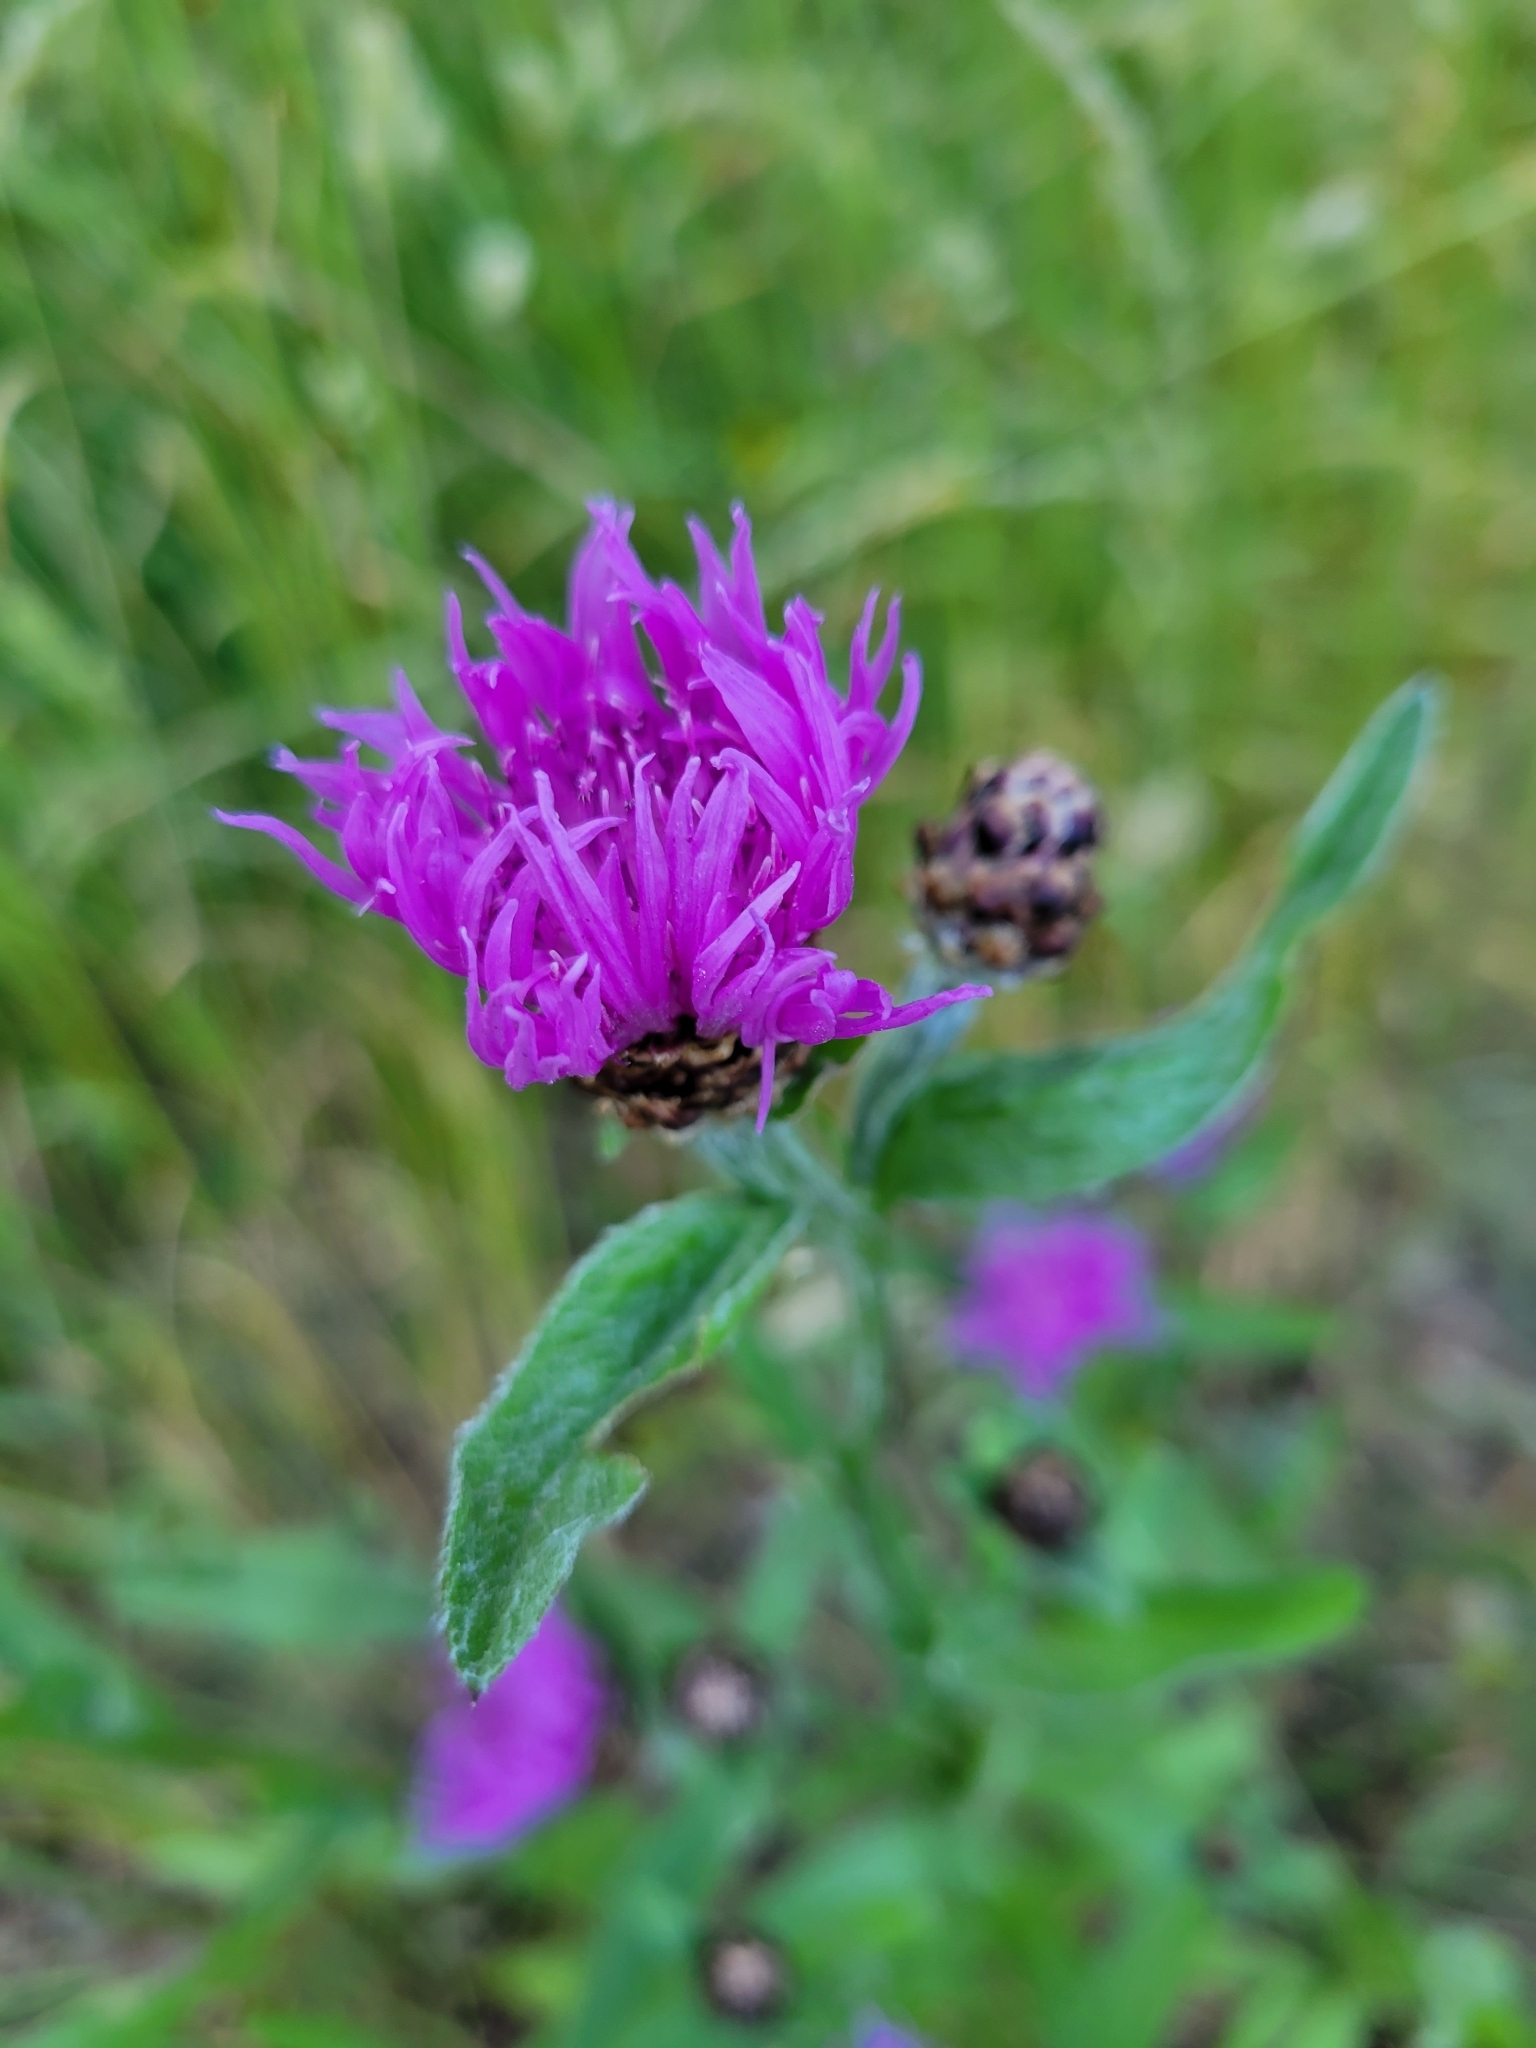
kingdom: Plantae
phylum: Tracheophyta
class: Magnoliopsida
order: Asterales
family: Asteraceae
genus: Centaurea
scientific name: Centaurea jacea
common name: Brown knapweed
